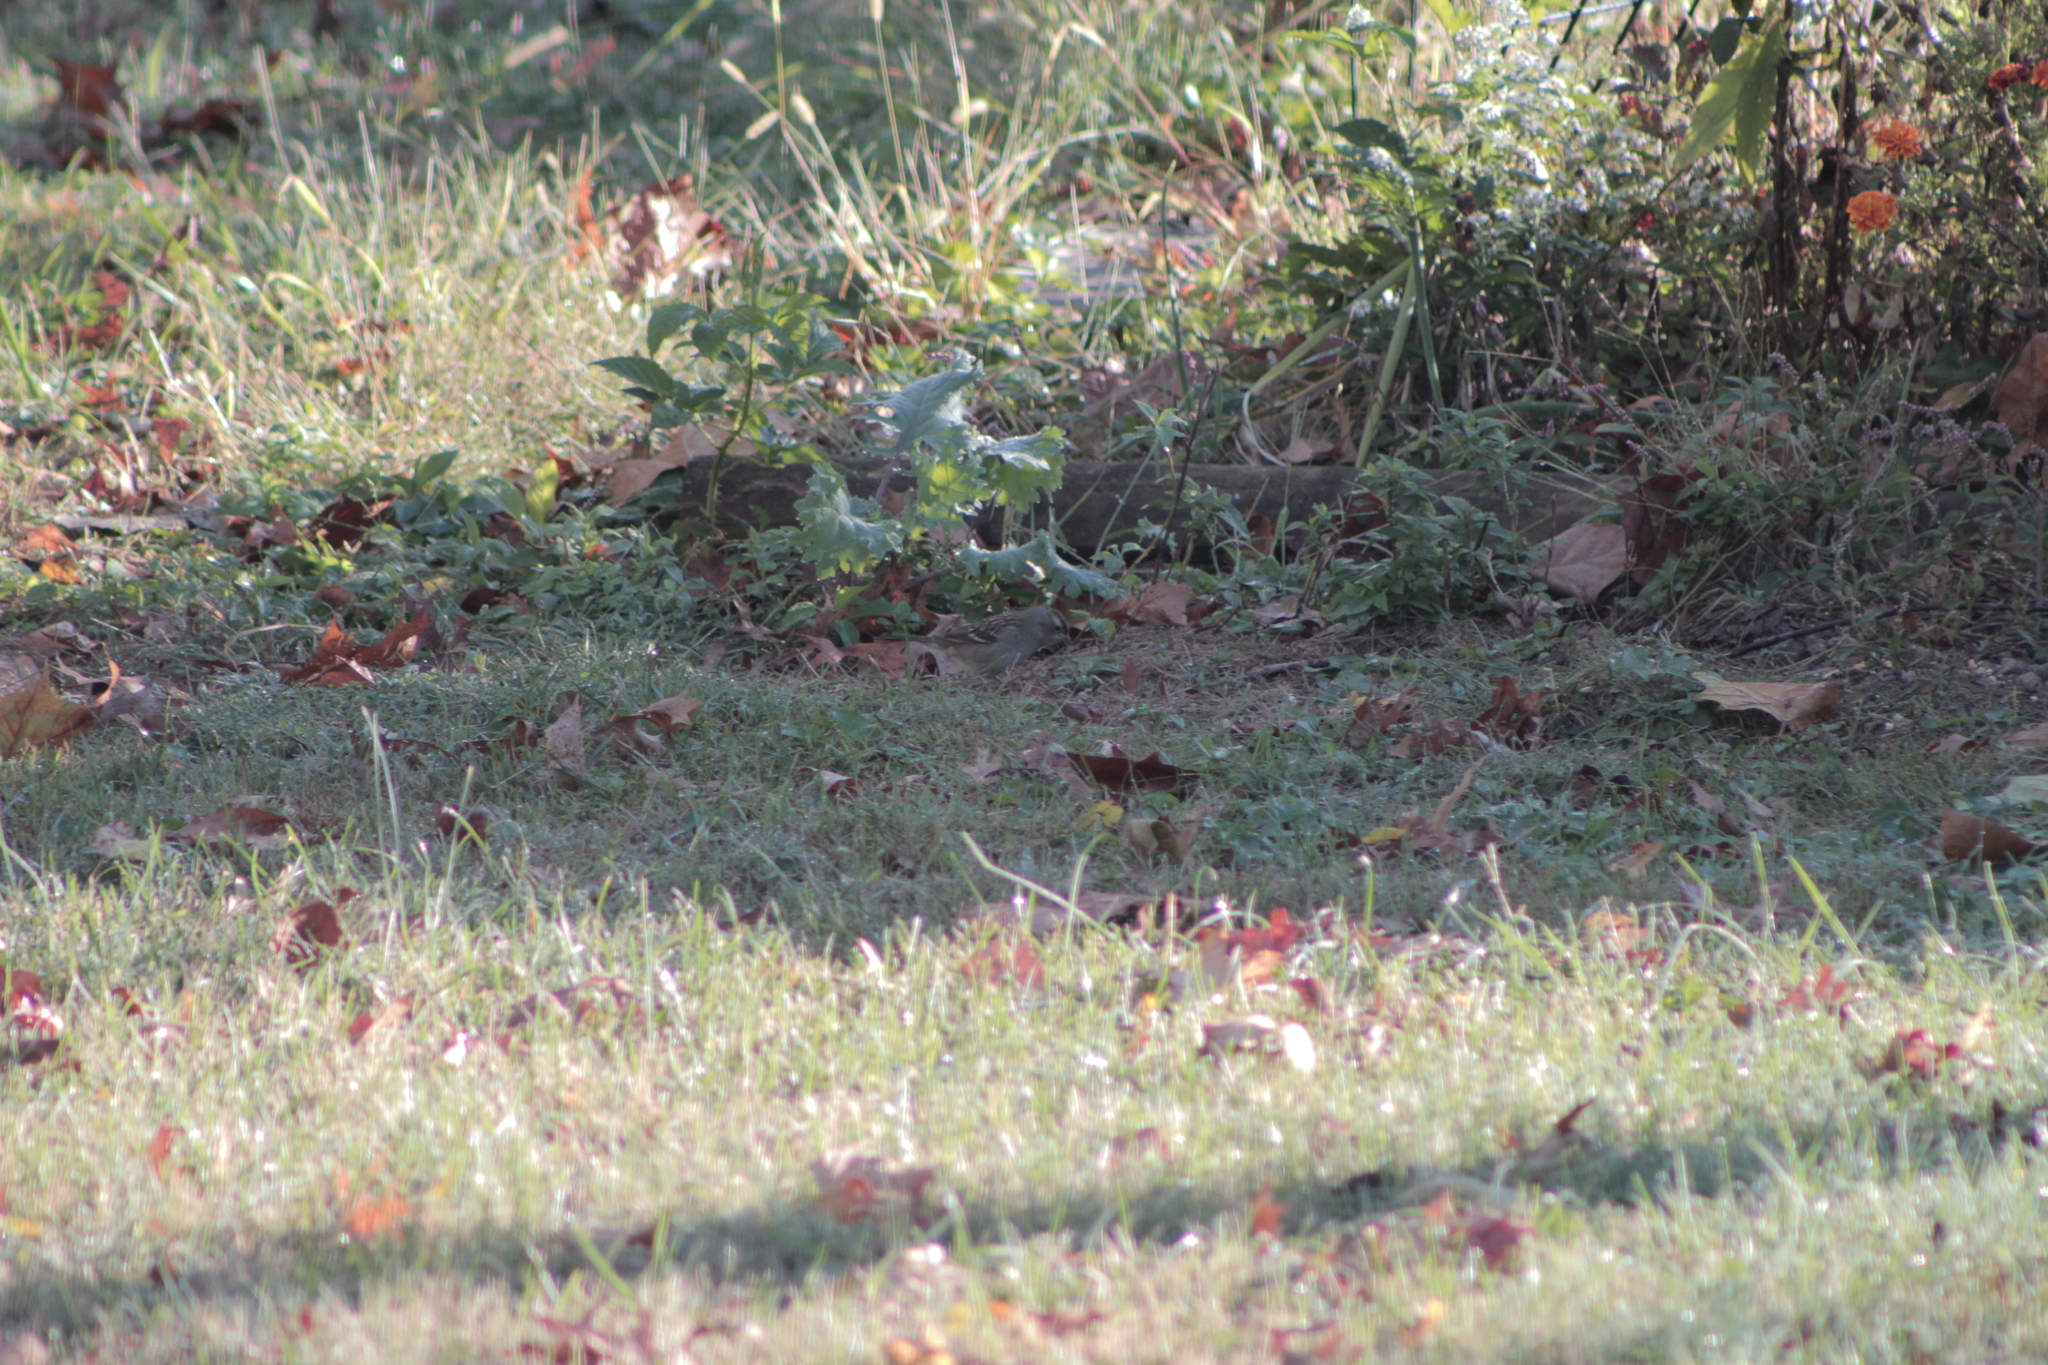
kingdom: Animalia
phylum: Chordata
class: Aves
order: Passeriformes
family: Passerellidae
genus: Zonotrichia
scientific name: Zonotrichia leucophrys
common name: White-crowned sparrow
